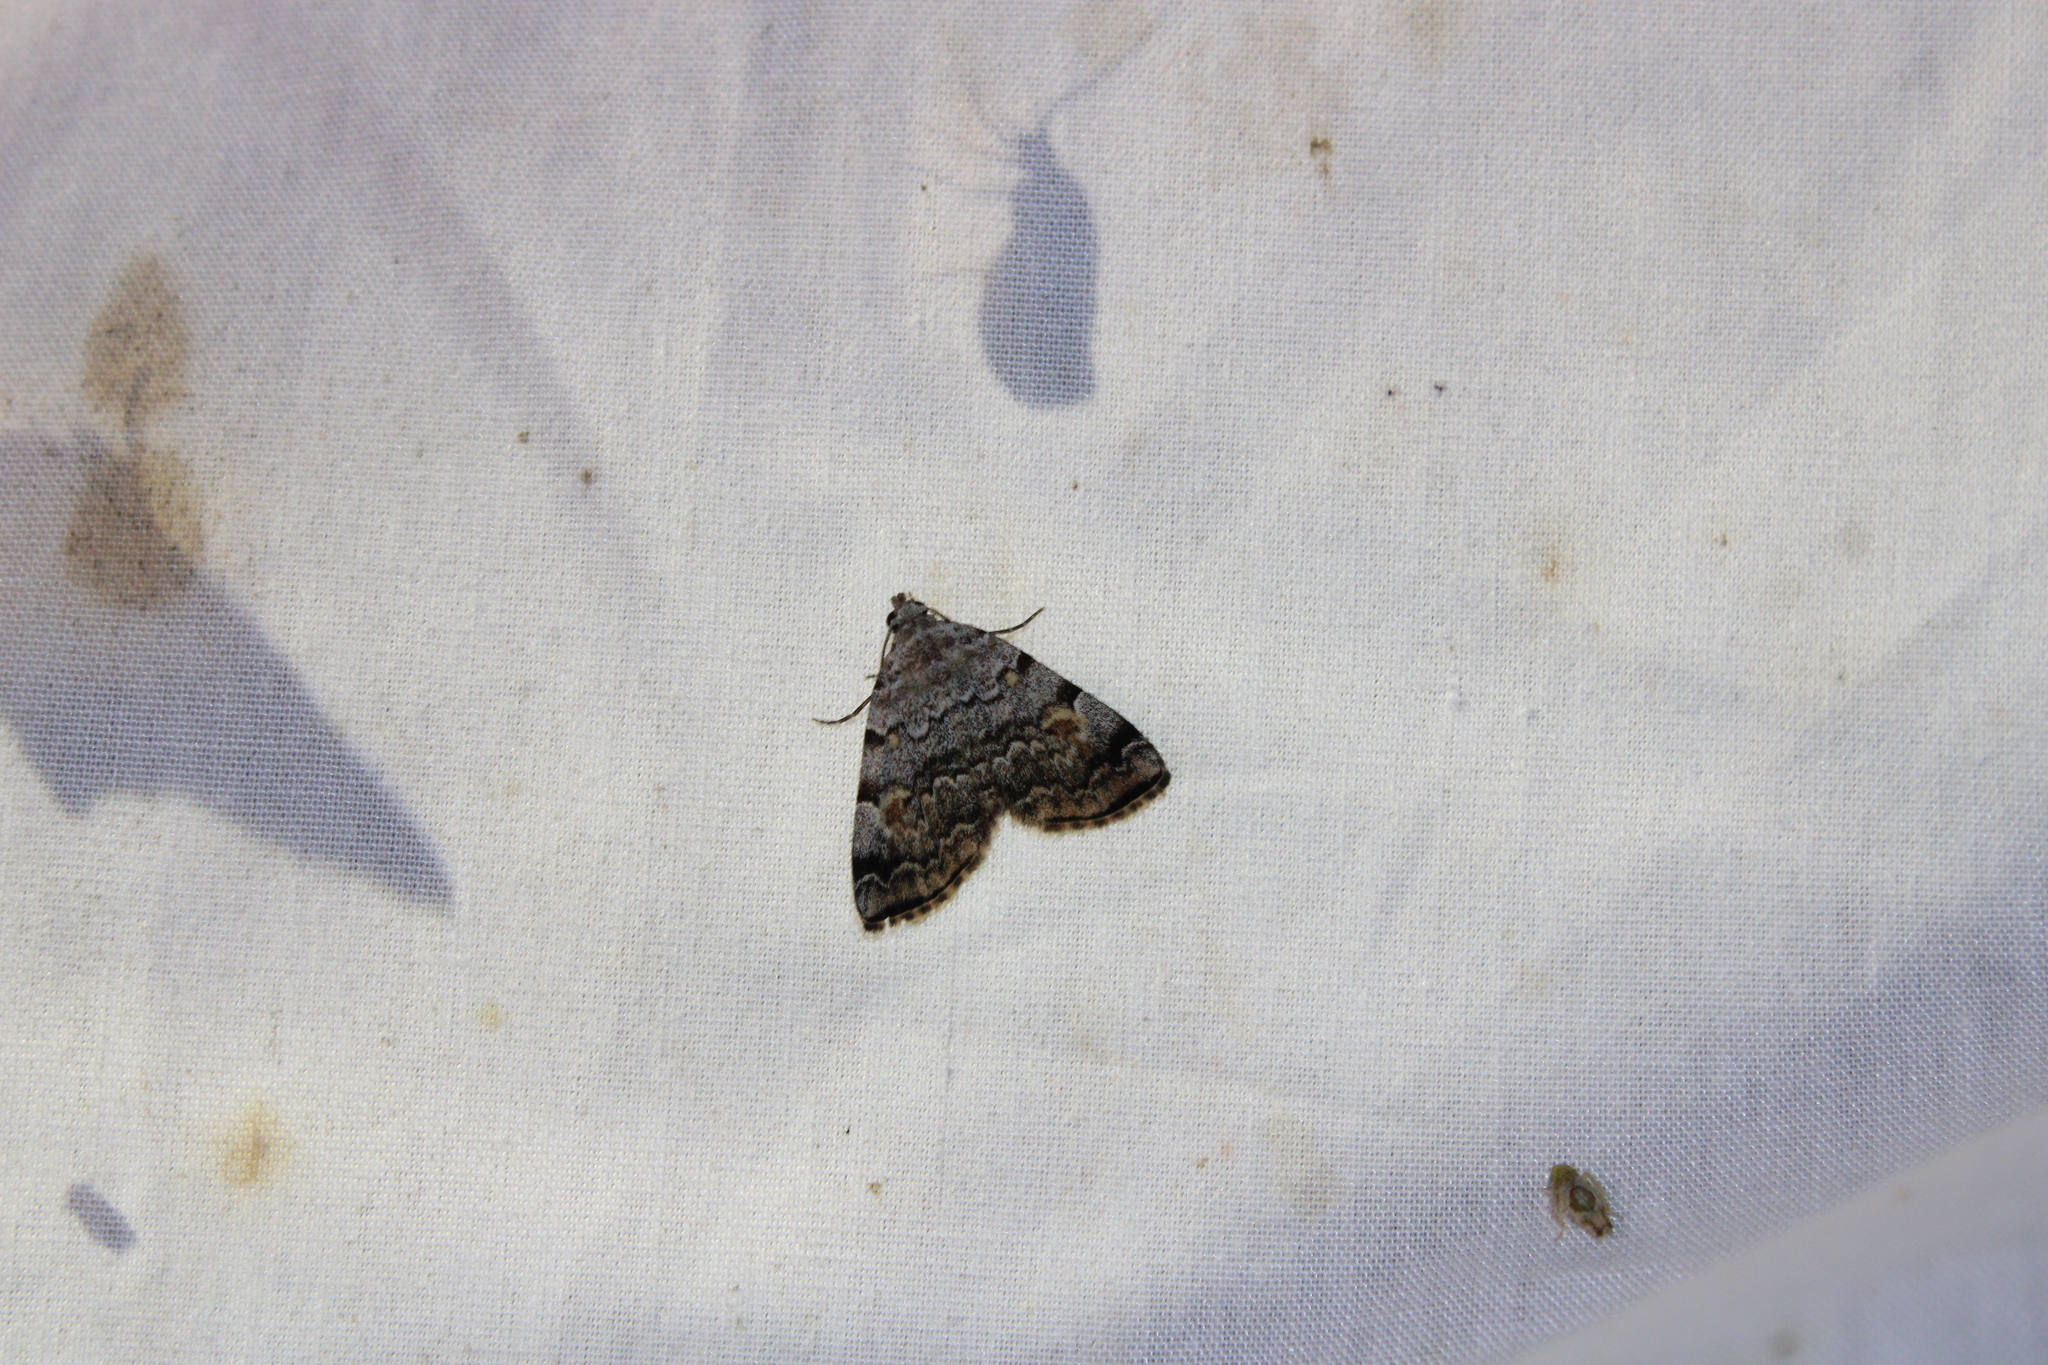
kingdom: Animalia
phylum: Arthropoda
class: Insecta
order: Lepidoptera
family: Erebidae
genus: Idia
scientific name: Idia americalis
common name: American idia moth
